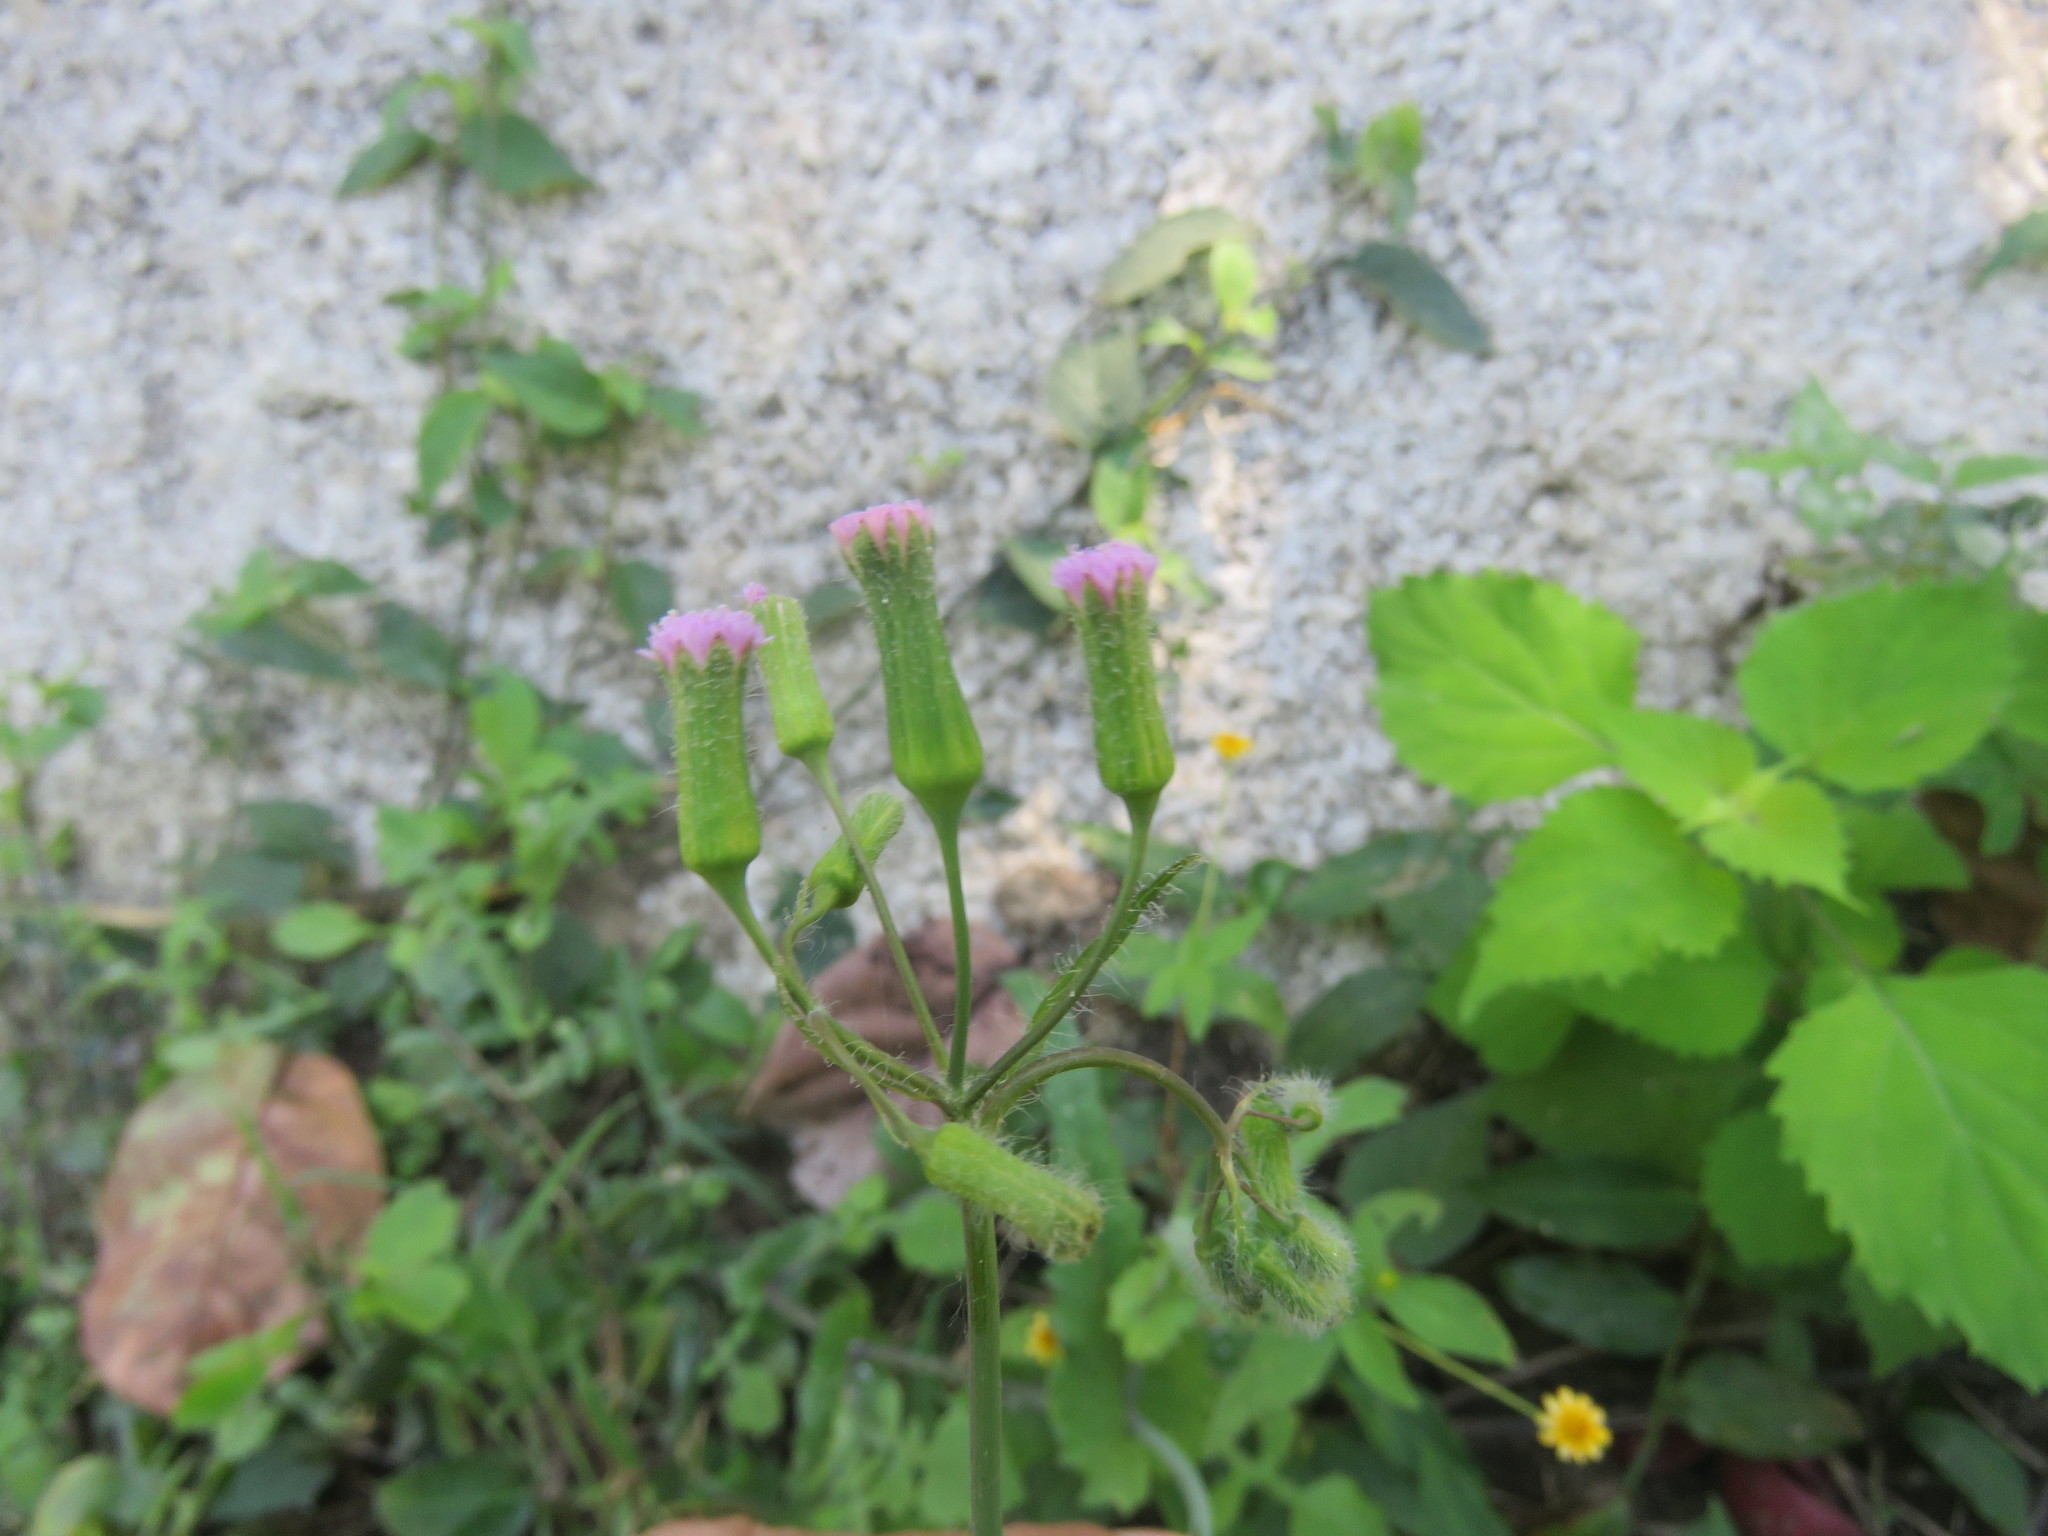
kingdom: Plantae
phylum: Tracheophyta
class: Magnoliopsida
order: Asterales
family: Asteraceae
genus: Emilia
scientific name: Emilia sonchifolia
